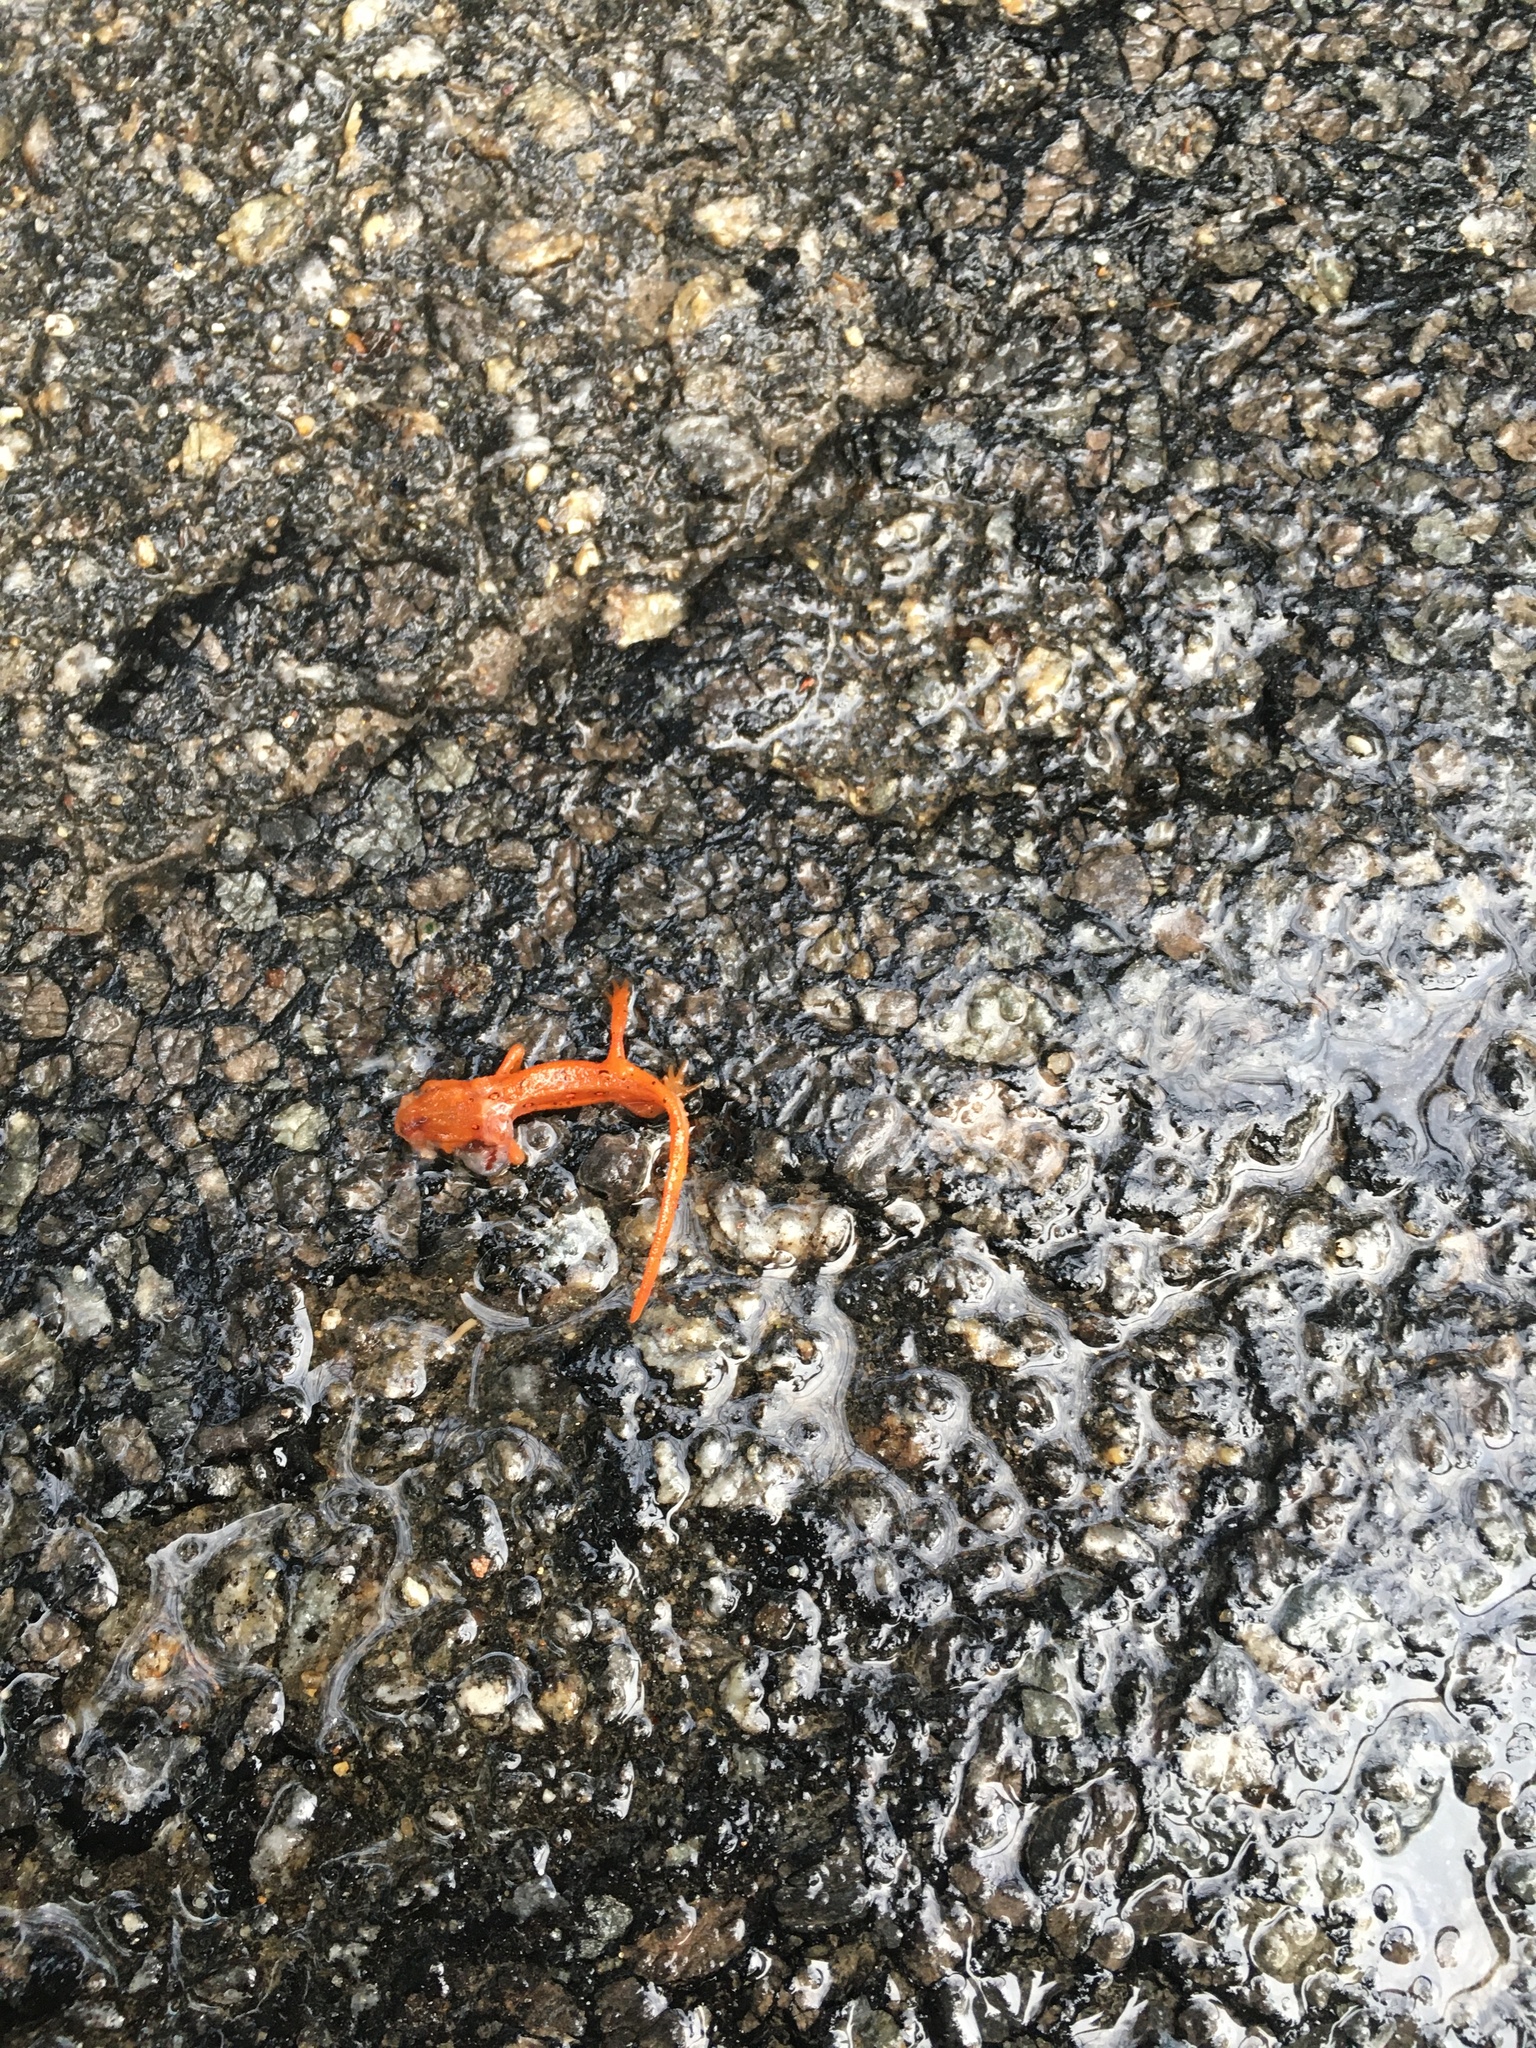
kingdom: Animalia
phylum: Chordata
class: Amphibia
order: Caudata
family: Salamandridae
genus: Notophthalmus
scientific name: Notophthalmus viridescens
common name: Eastern newt
